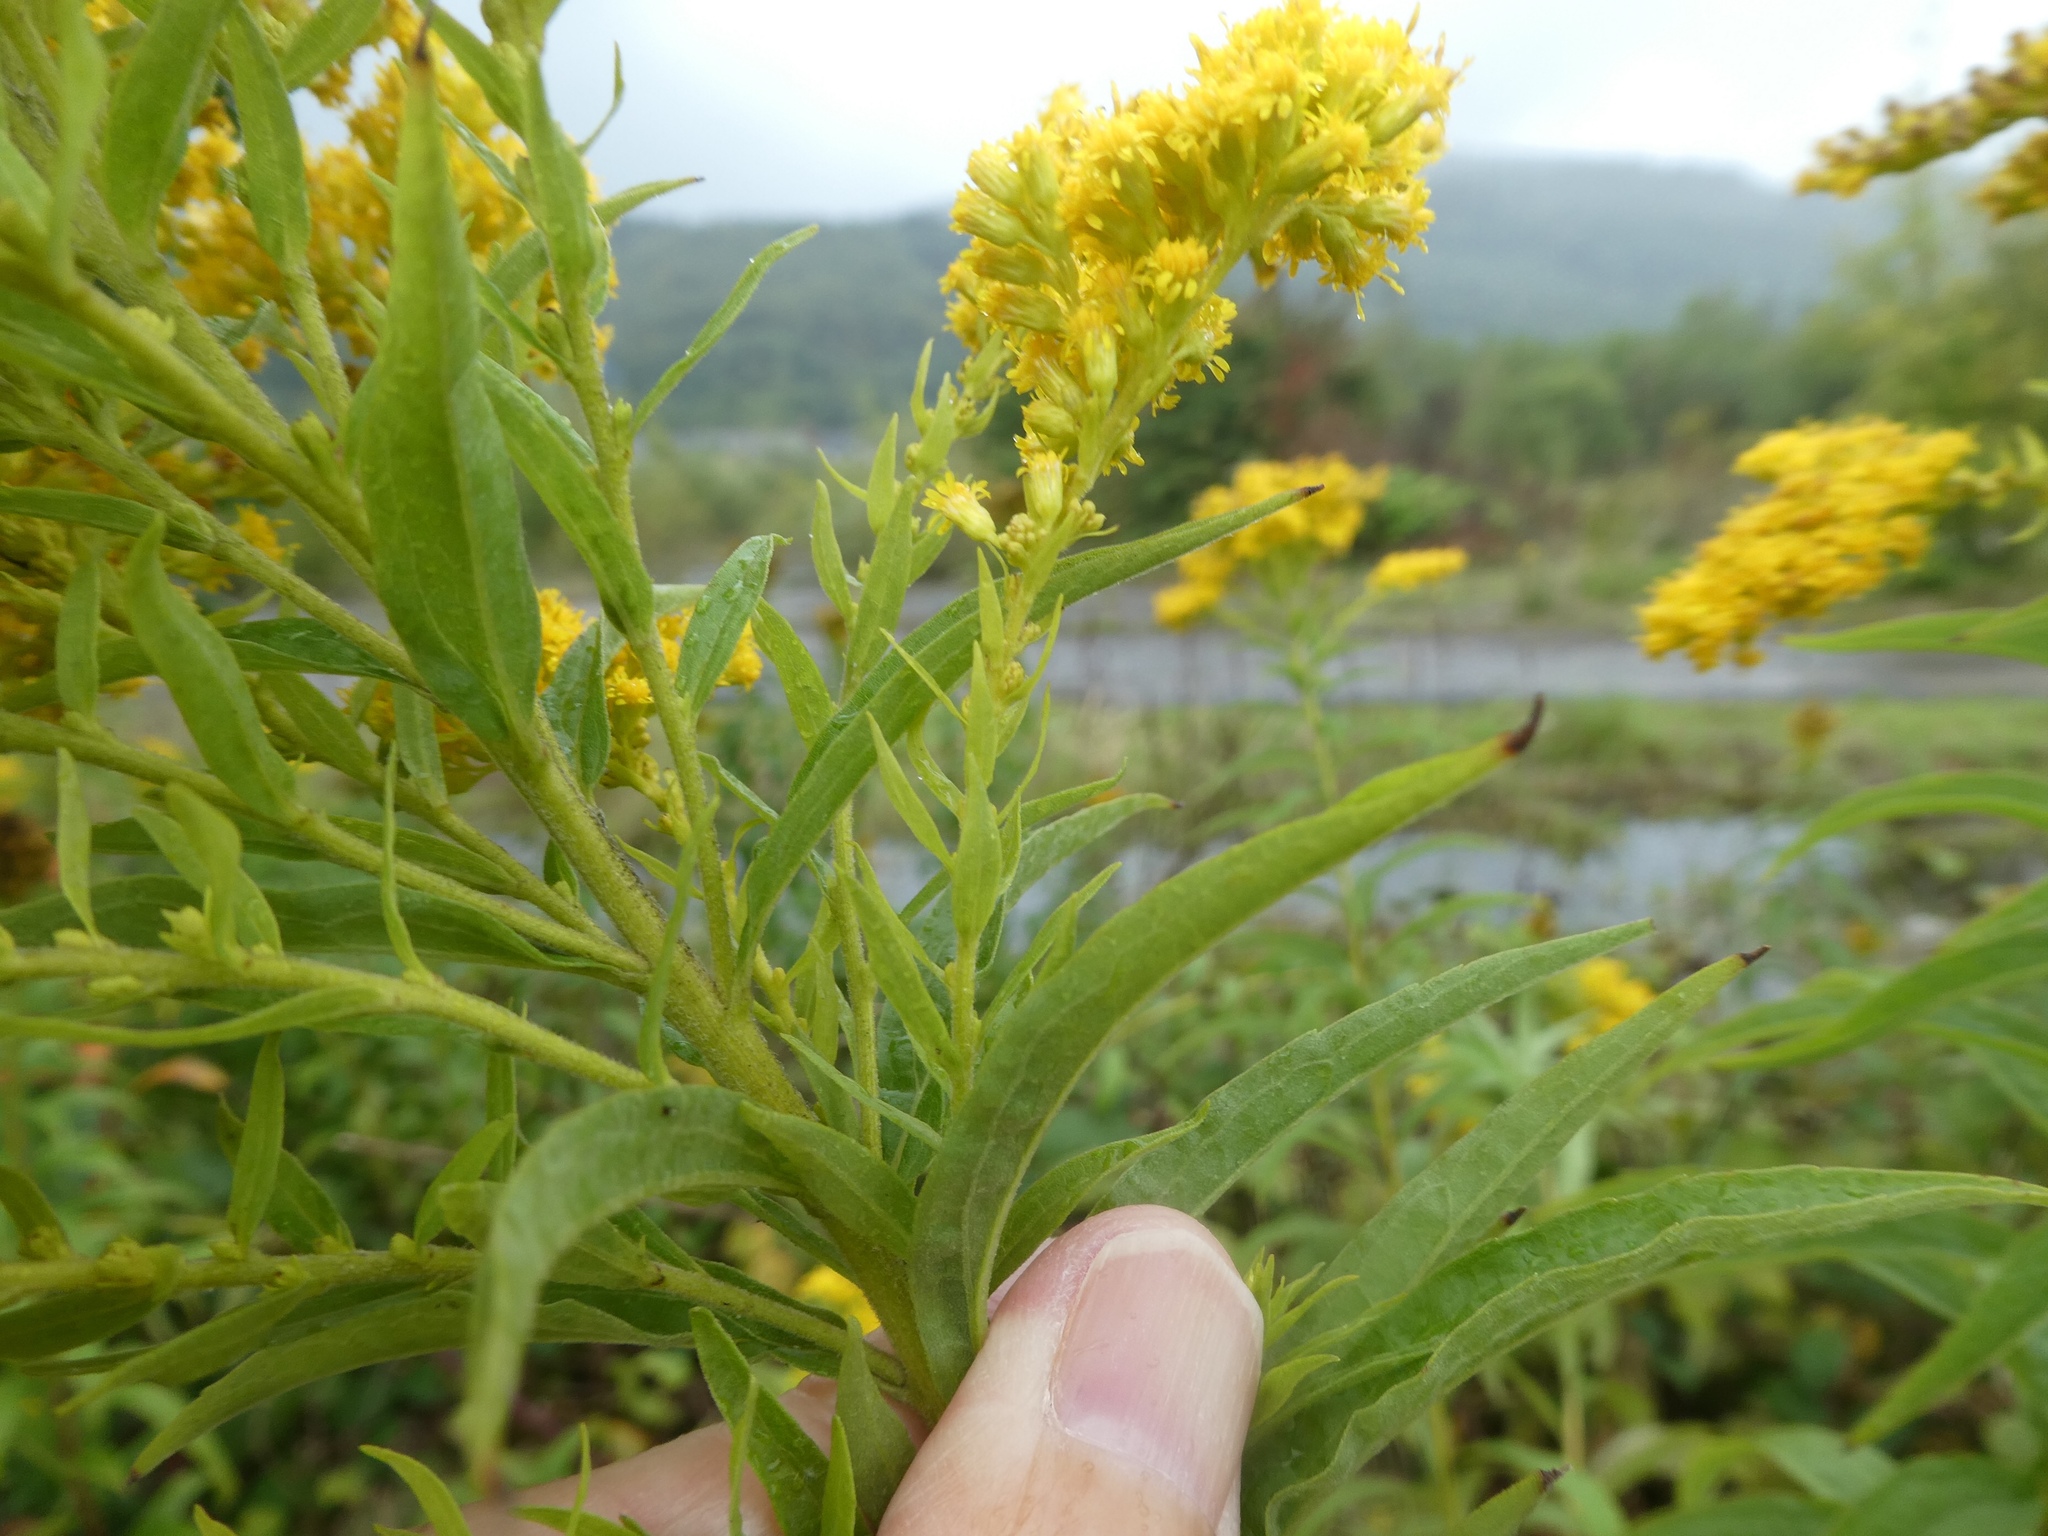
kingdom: Plantae
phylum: Tracheophyta
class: Magnoliopsida
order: Asterales
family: Asteraceae
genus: Solidago
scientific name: Solidago canadensis
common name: Canada goldenrod
